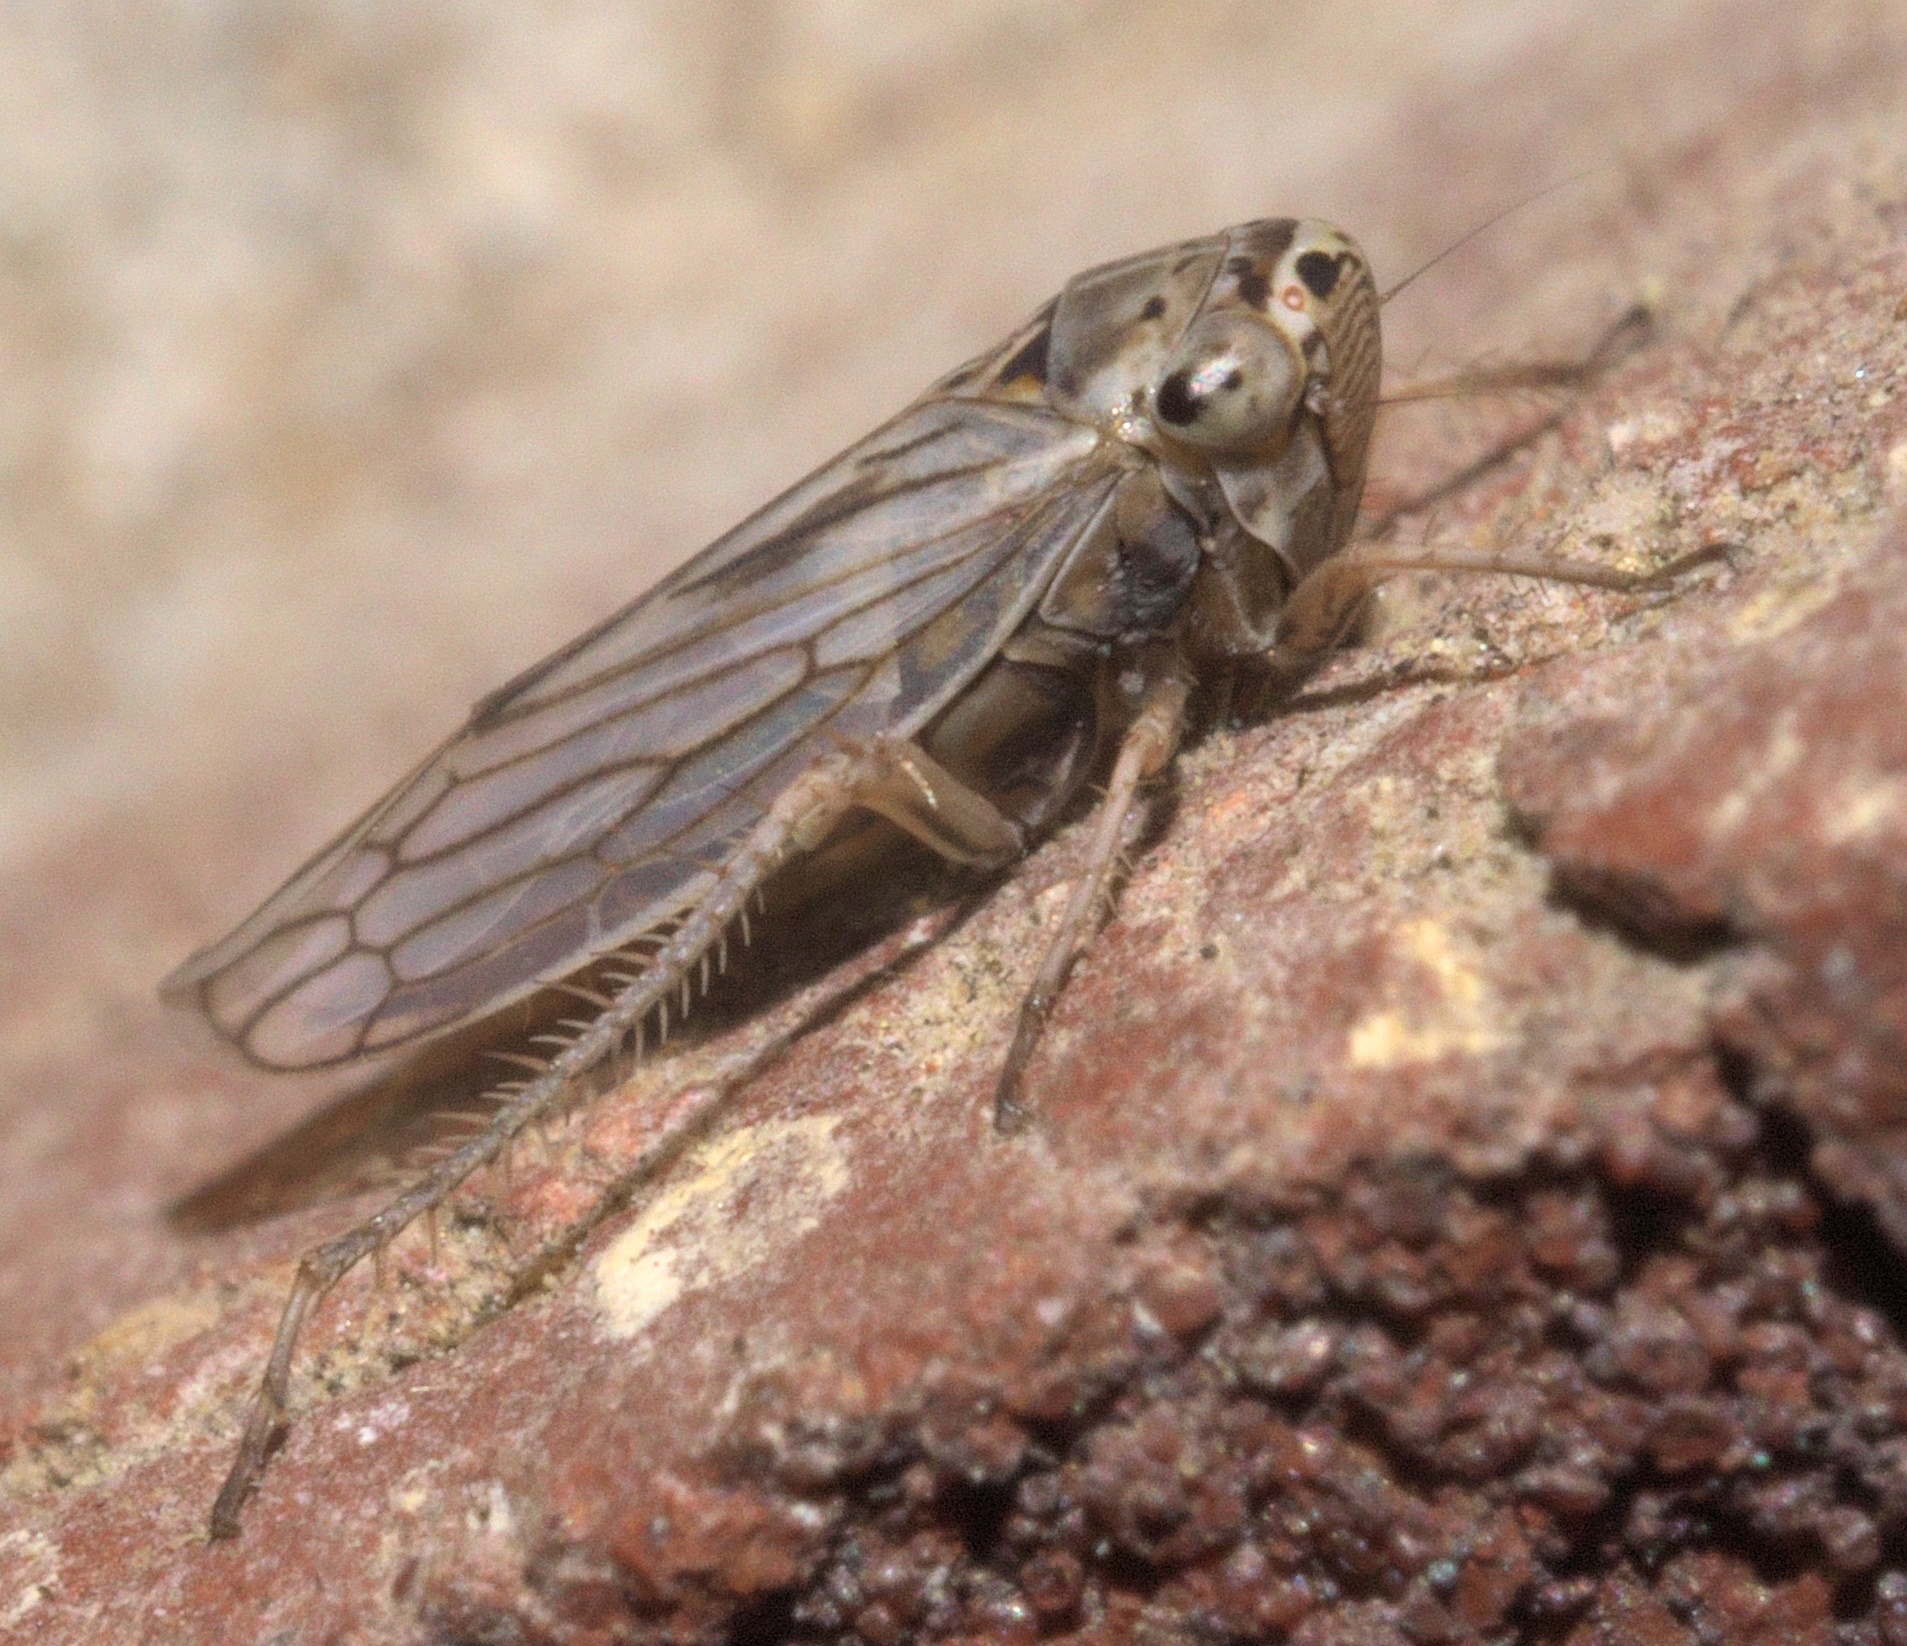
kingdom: Animalia
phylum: Arthropoda
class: Insecta
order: Hemiptera
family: Cicadellidae
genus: Exitianus
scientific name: Exitianus exitiosus
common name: Gray lawn leafhopper
